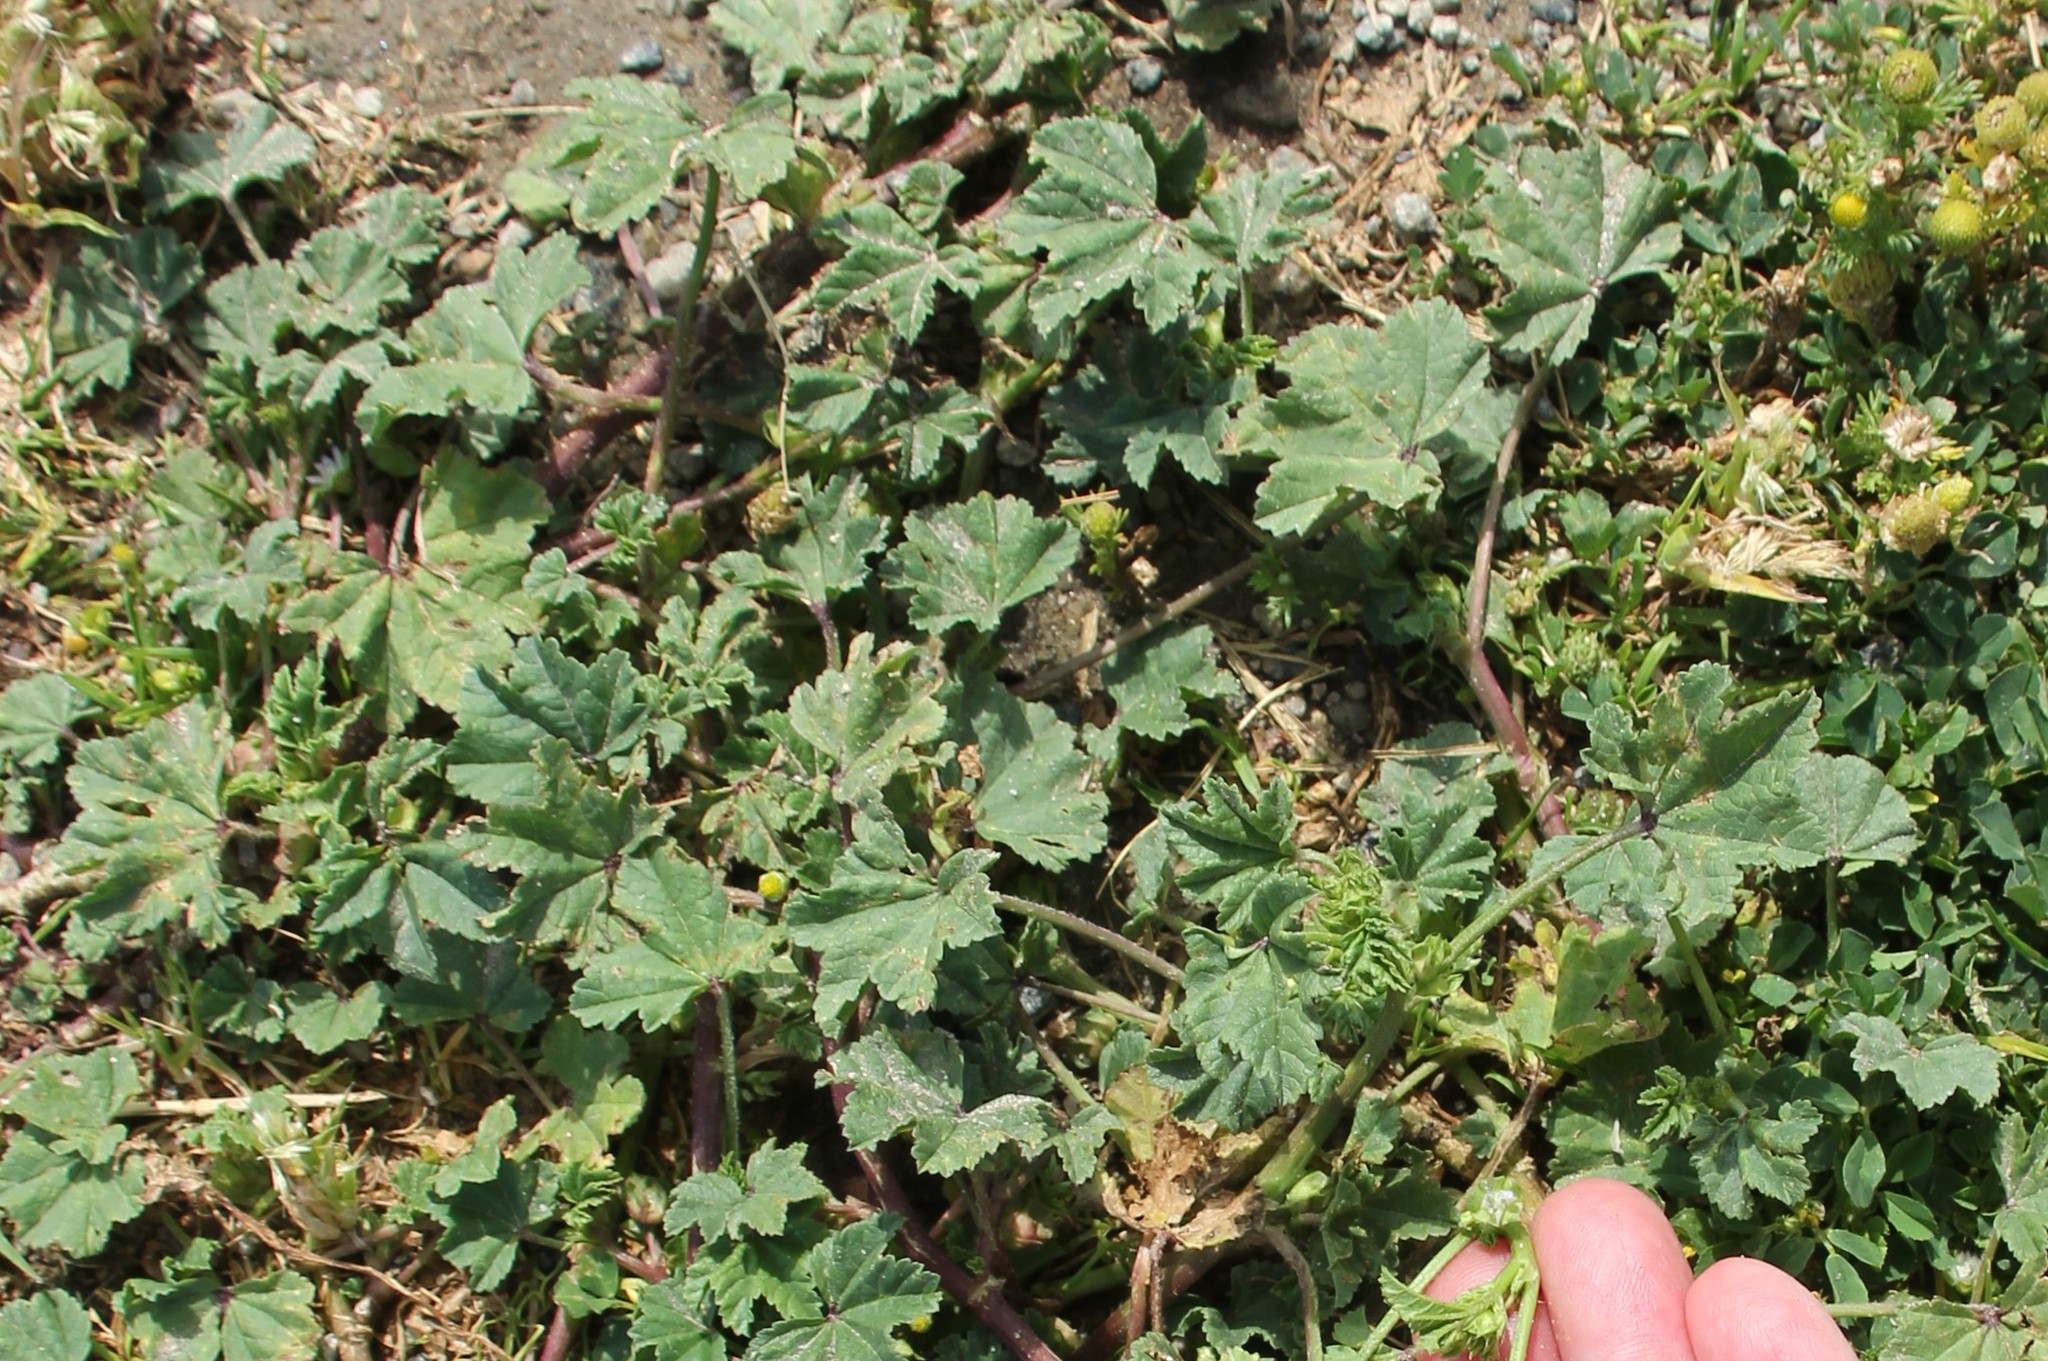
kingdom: Plantae
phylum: Tracheophyta
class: Magnoliopsida
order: Malvales
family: Malvaceae
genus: Malva
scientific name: Malva parviflora
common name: Least mallow
